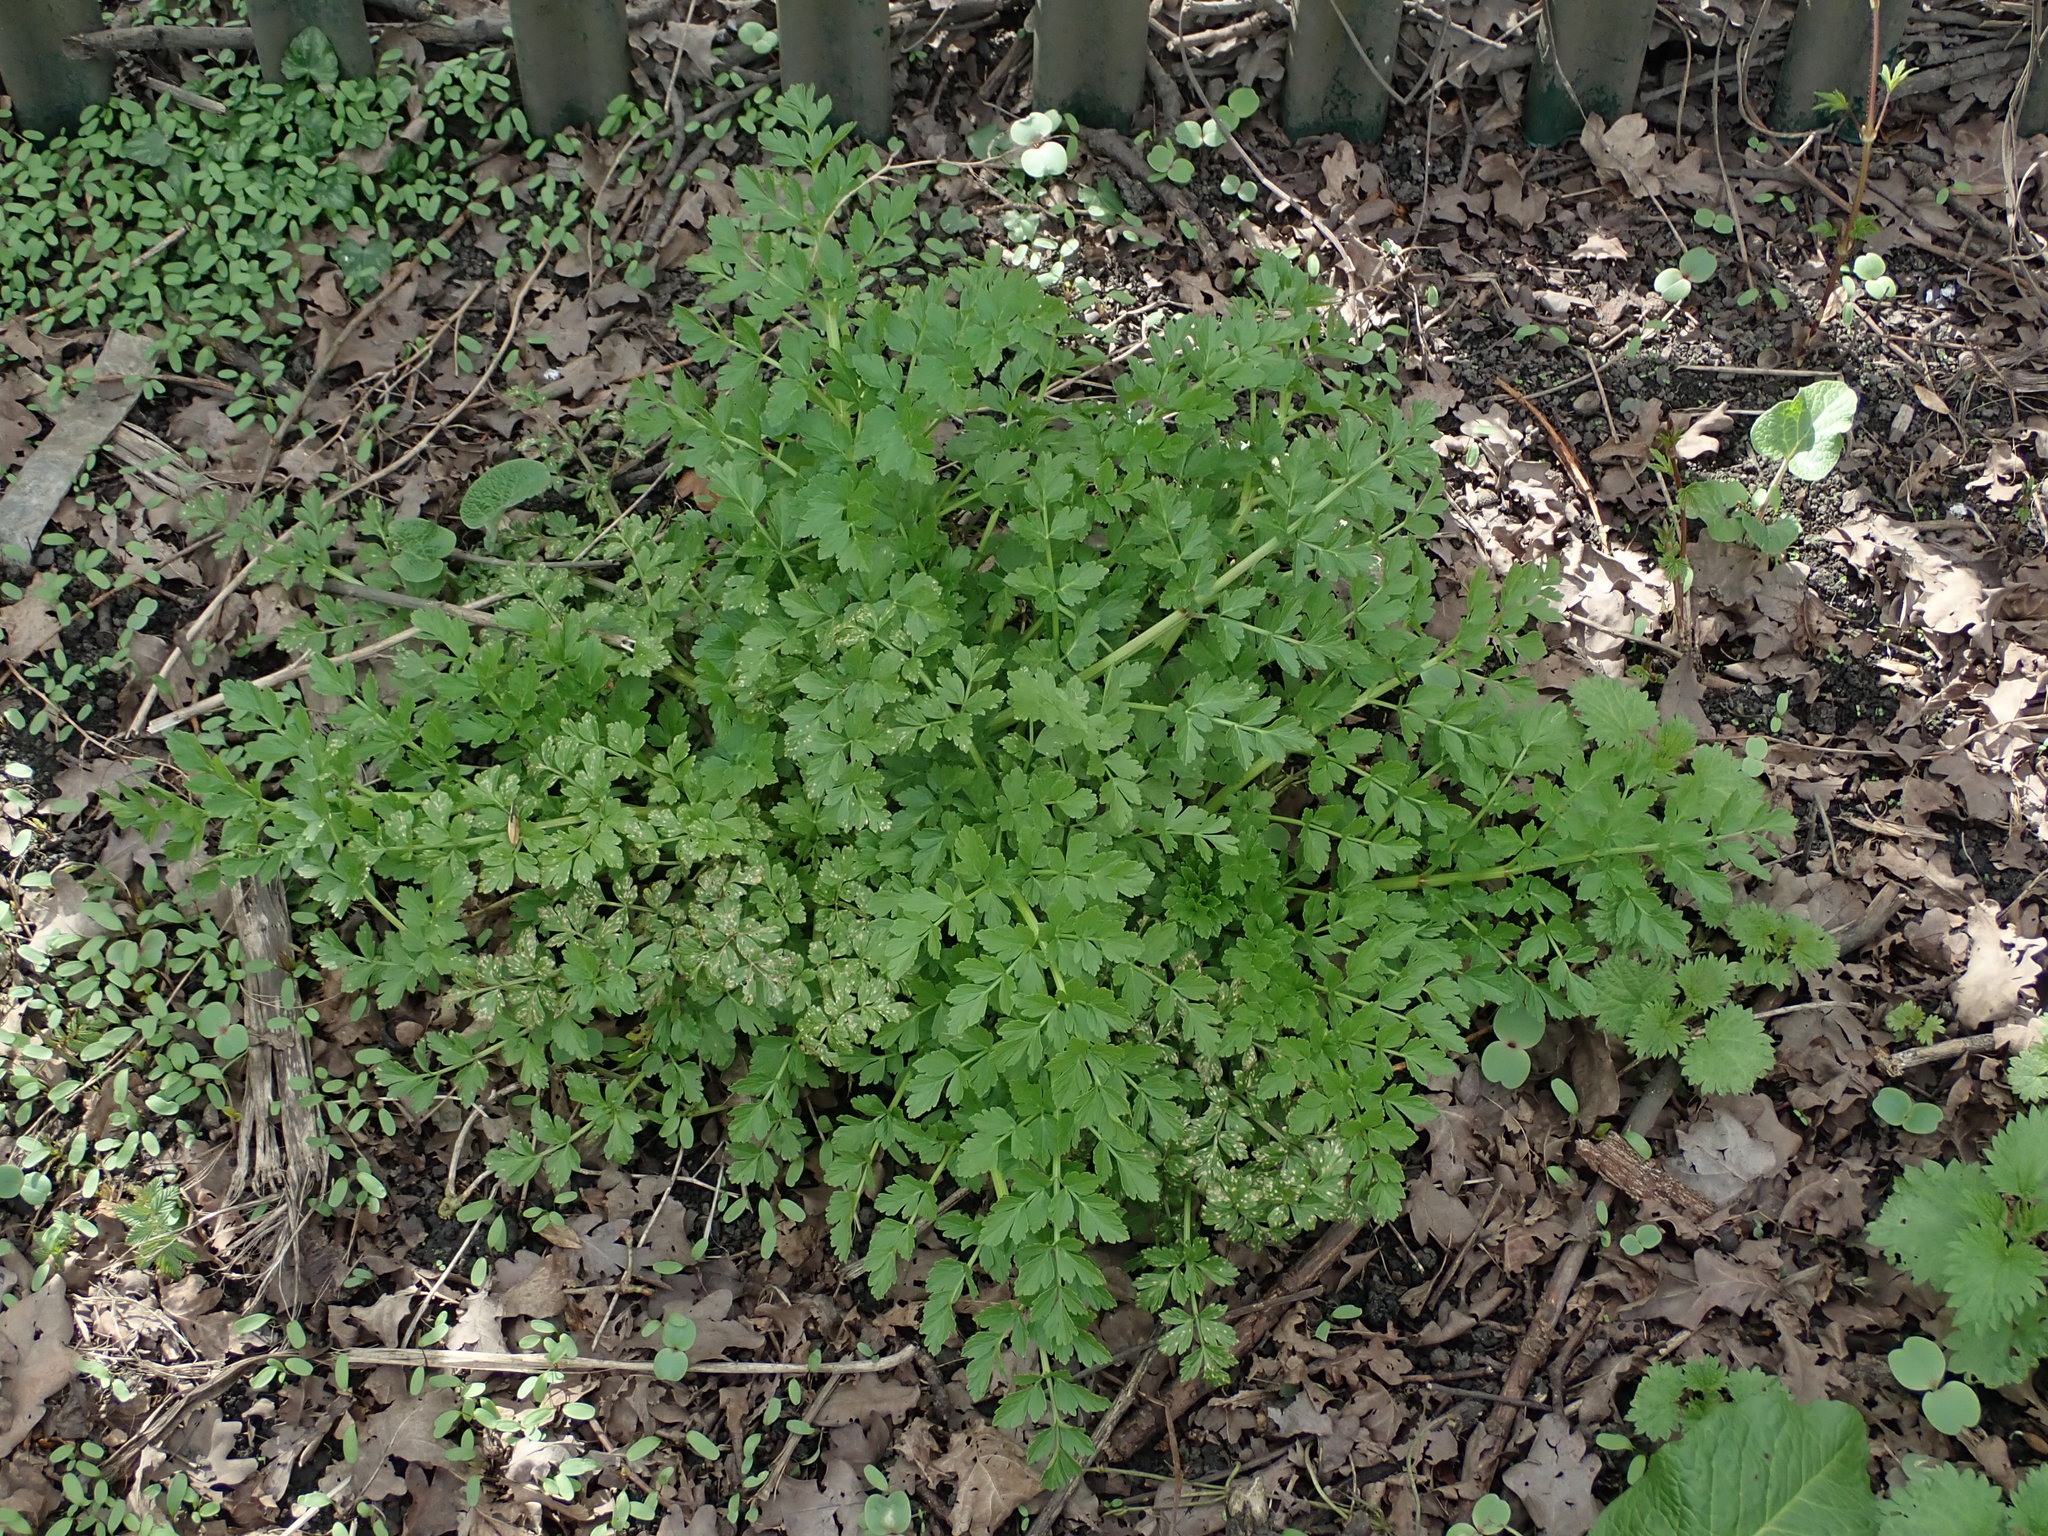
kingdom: Plantae
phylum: Tracheophyta
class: Magnoliopsida
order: Apiales
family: Apiaceae
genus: Oenanthe
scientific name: Oenanthe crocata
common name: Hemlock water-dropwort
